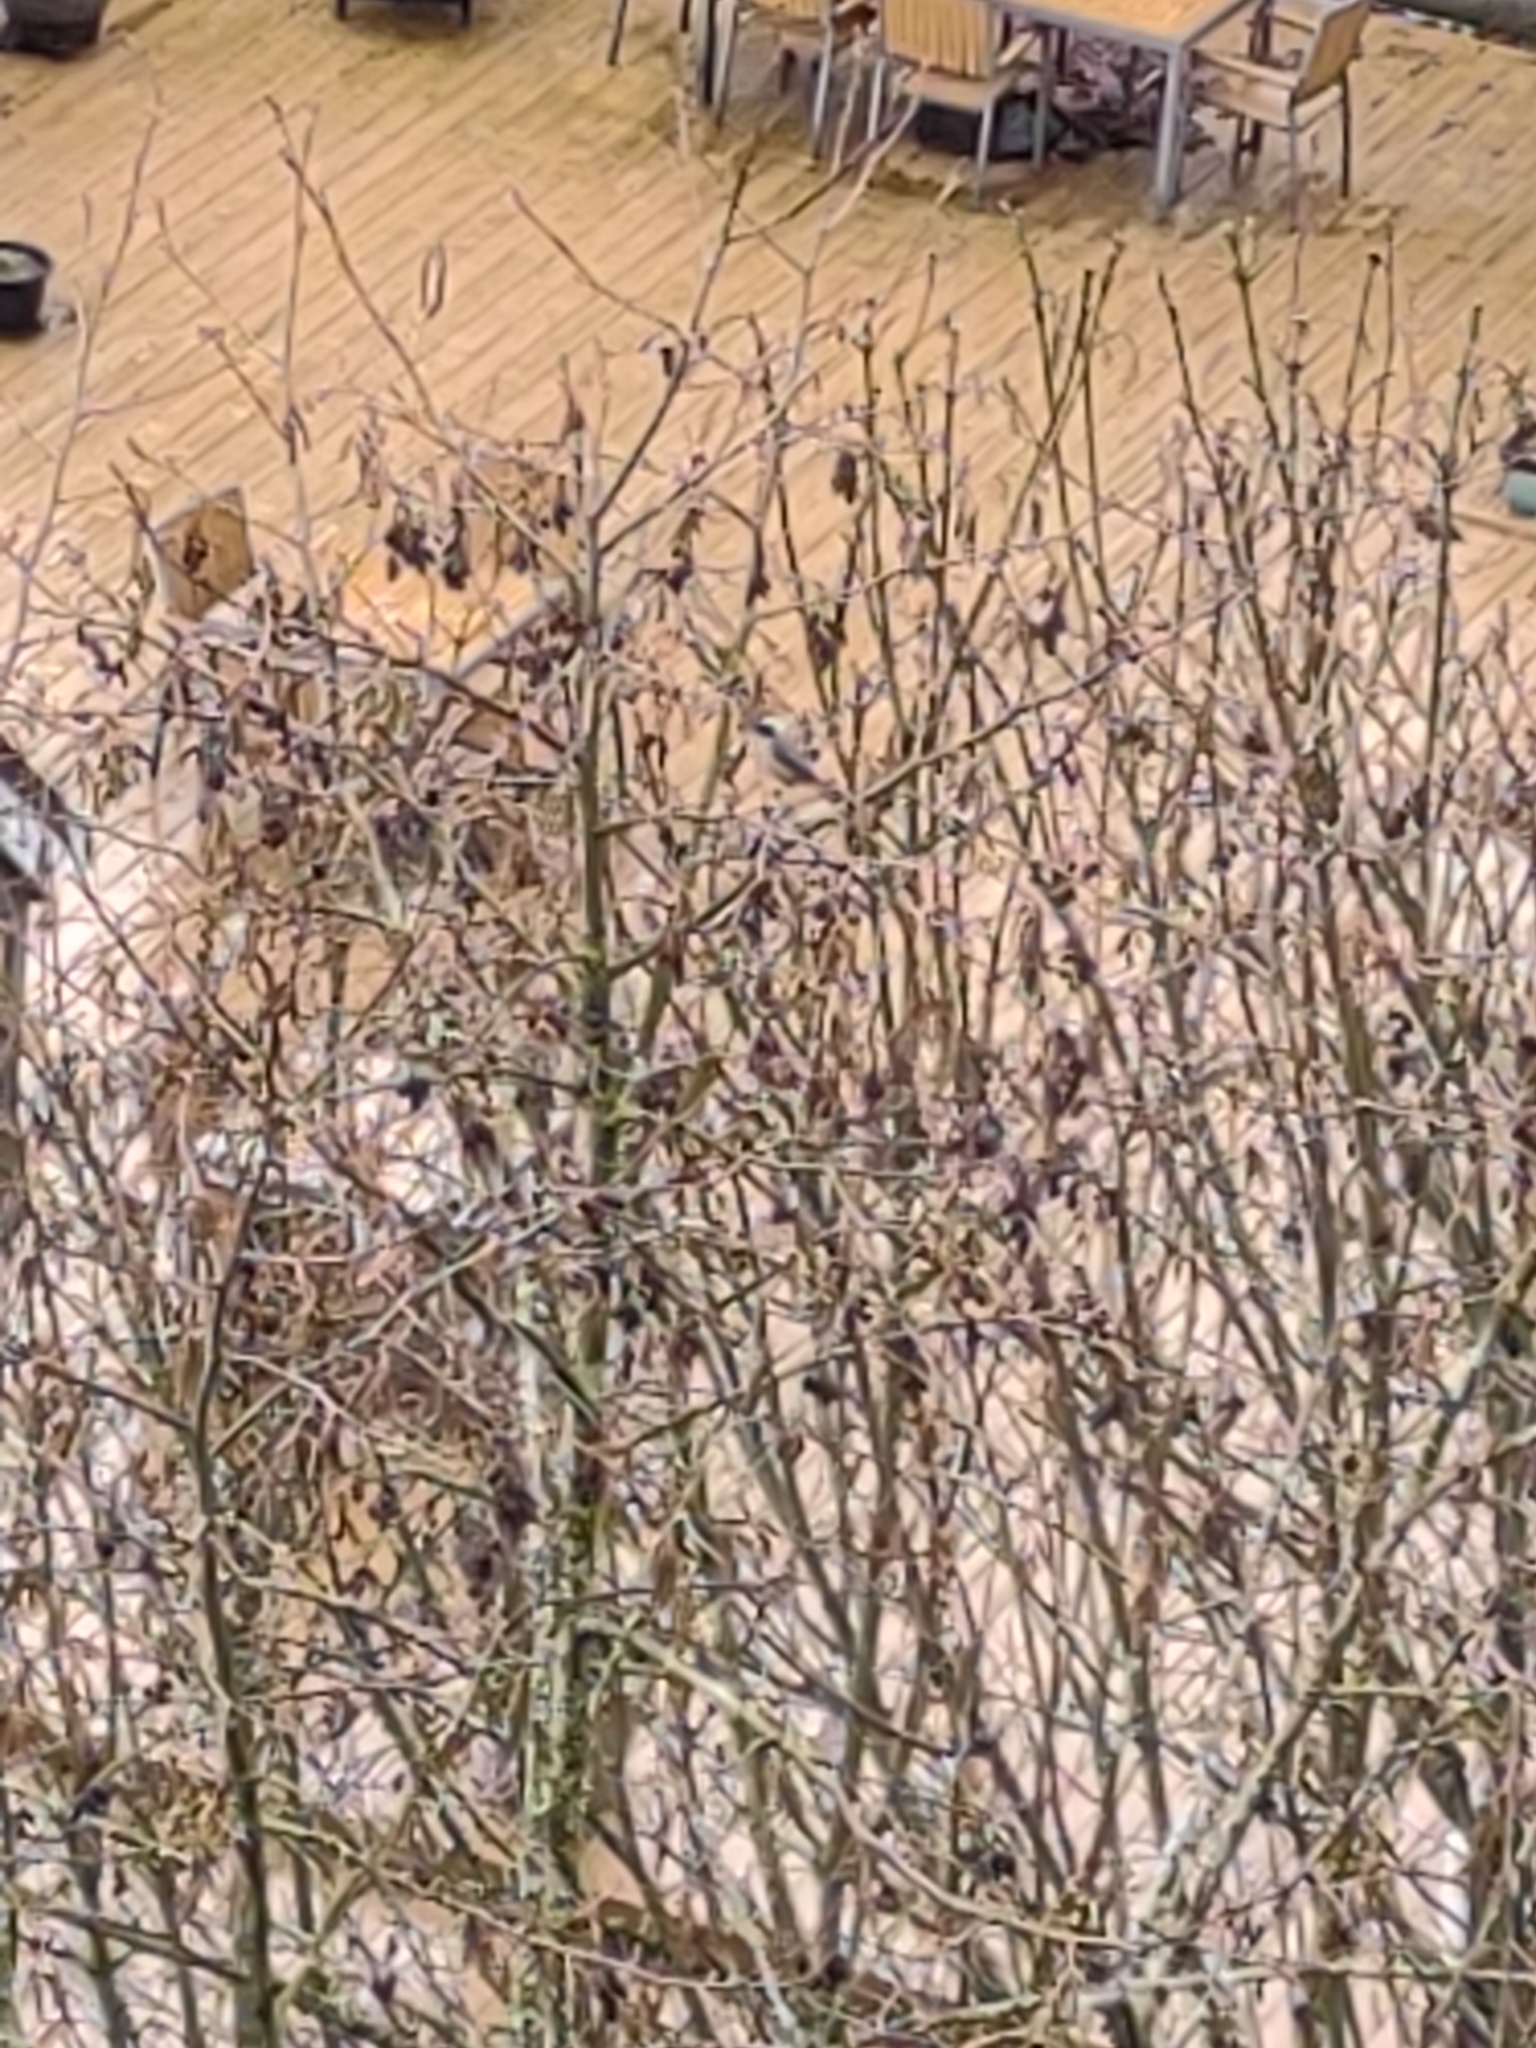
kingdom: Animalia
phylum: Chordata
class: Aves
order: Passeriformes
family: Paridae
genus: Poecile
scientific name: Poecile atricapillus
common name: Black-capped chickadee
